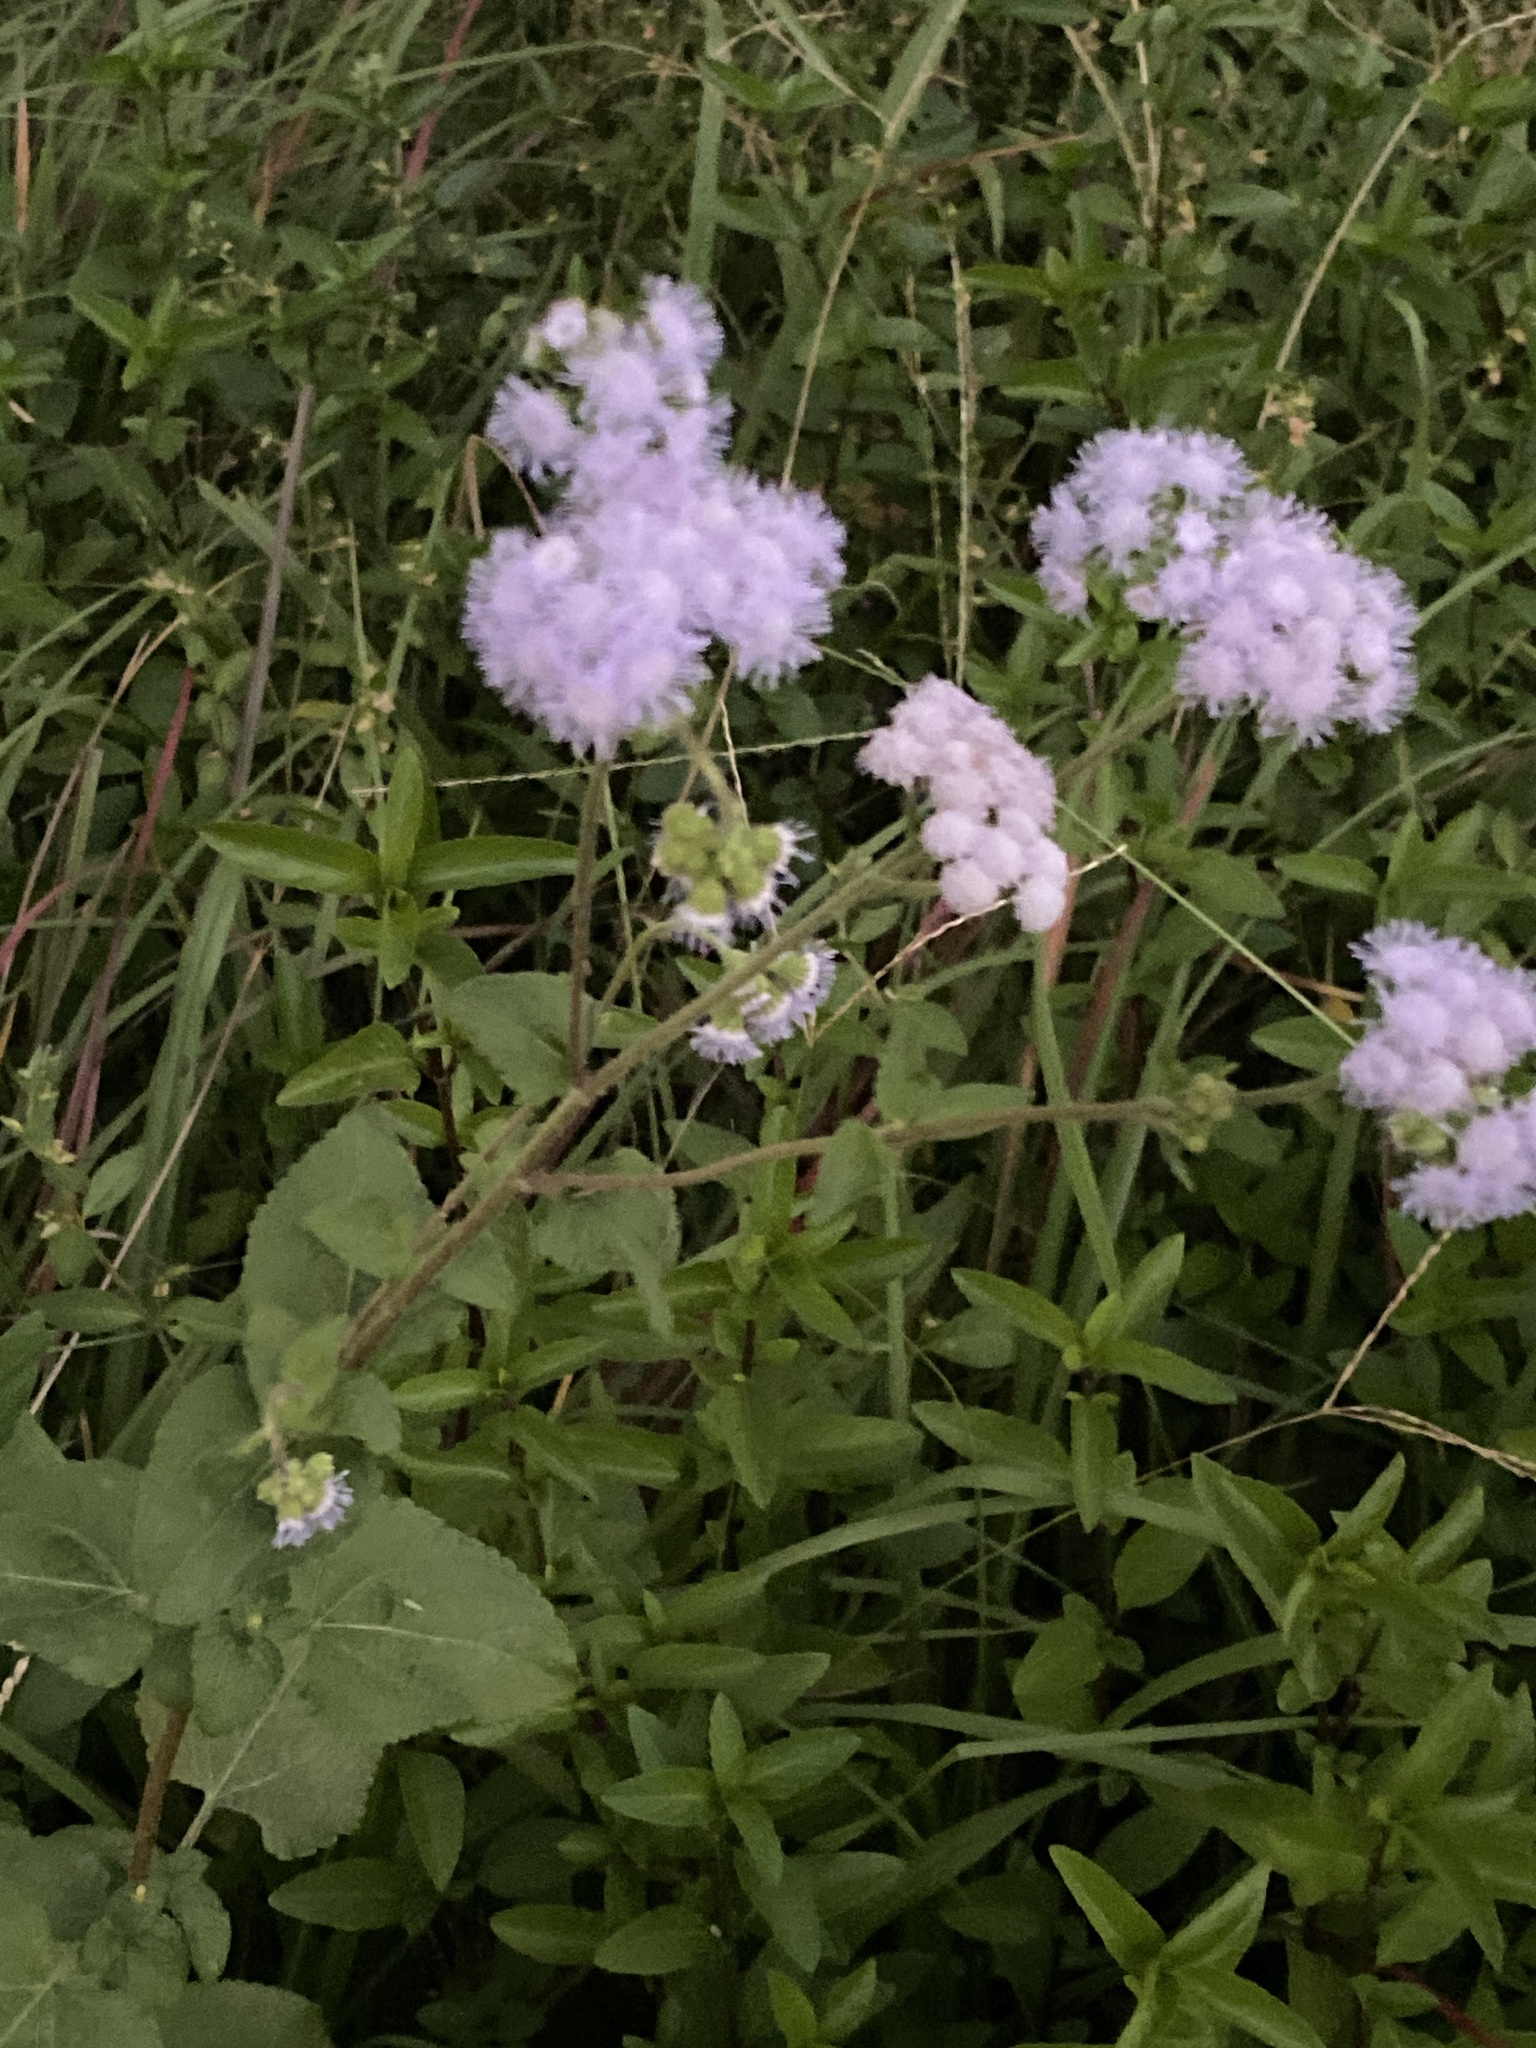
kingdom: Plantae
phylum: Tracheophyta
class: Magnoliopsida
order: Asterales
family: Asteraceae
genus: Ageratum
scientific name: Ageratum houstonianum
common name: Bluemink
